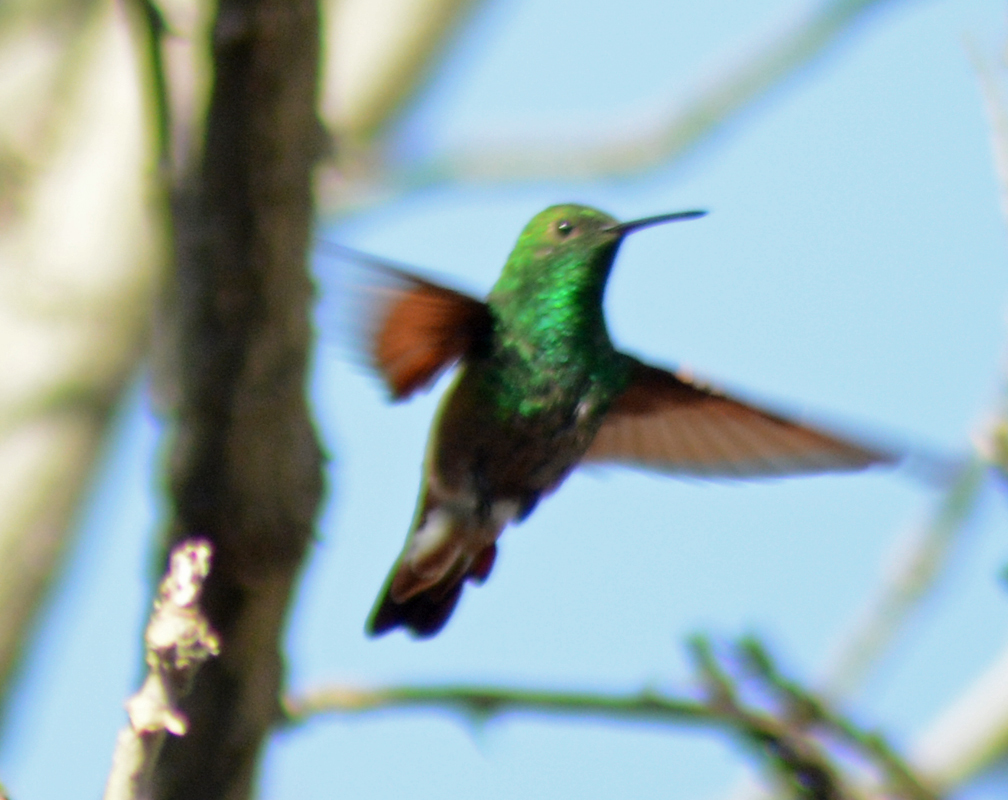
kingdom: Animalia
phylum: Chordata
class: Aves
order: Apodiformes
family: Trochilidae
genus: Saucerottia
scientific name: Saucerottia beryllina
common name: Berylline hummingbird
